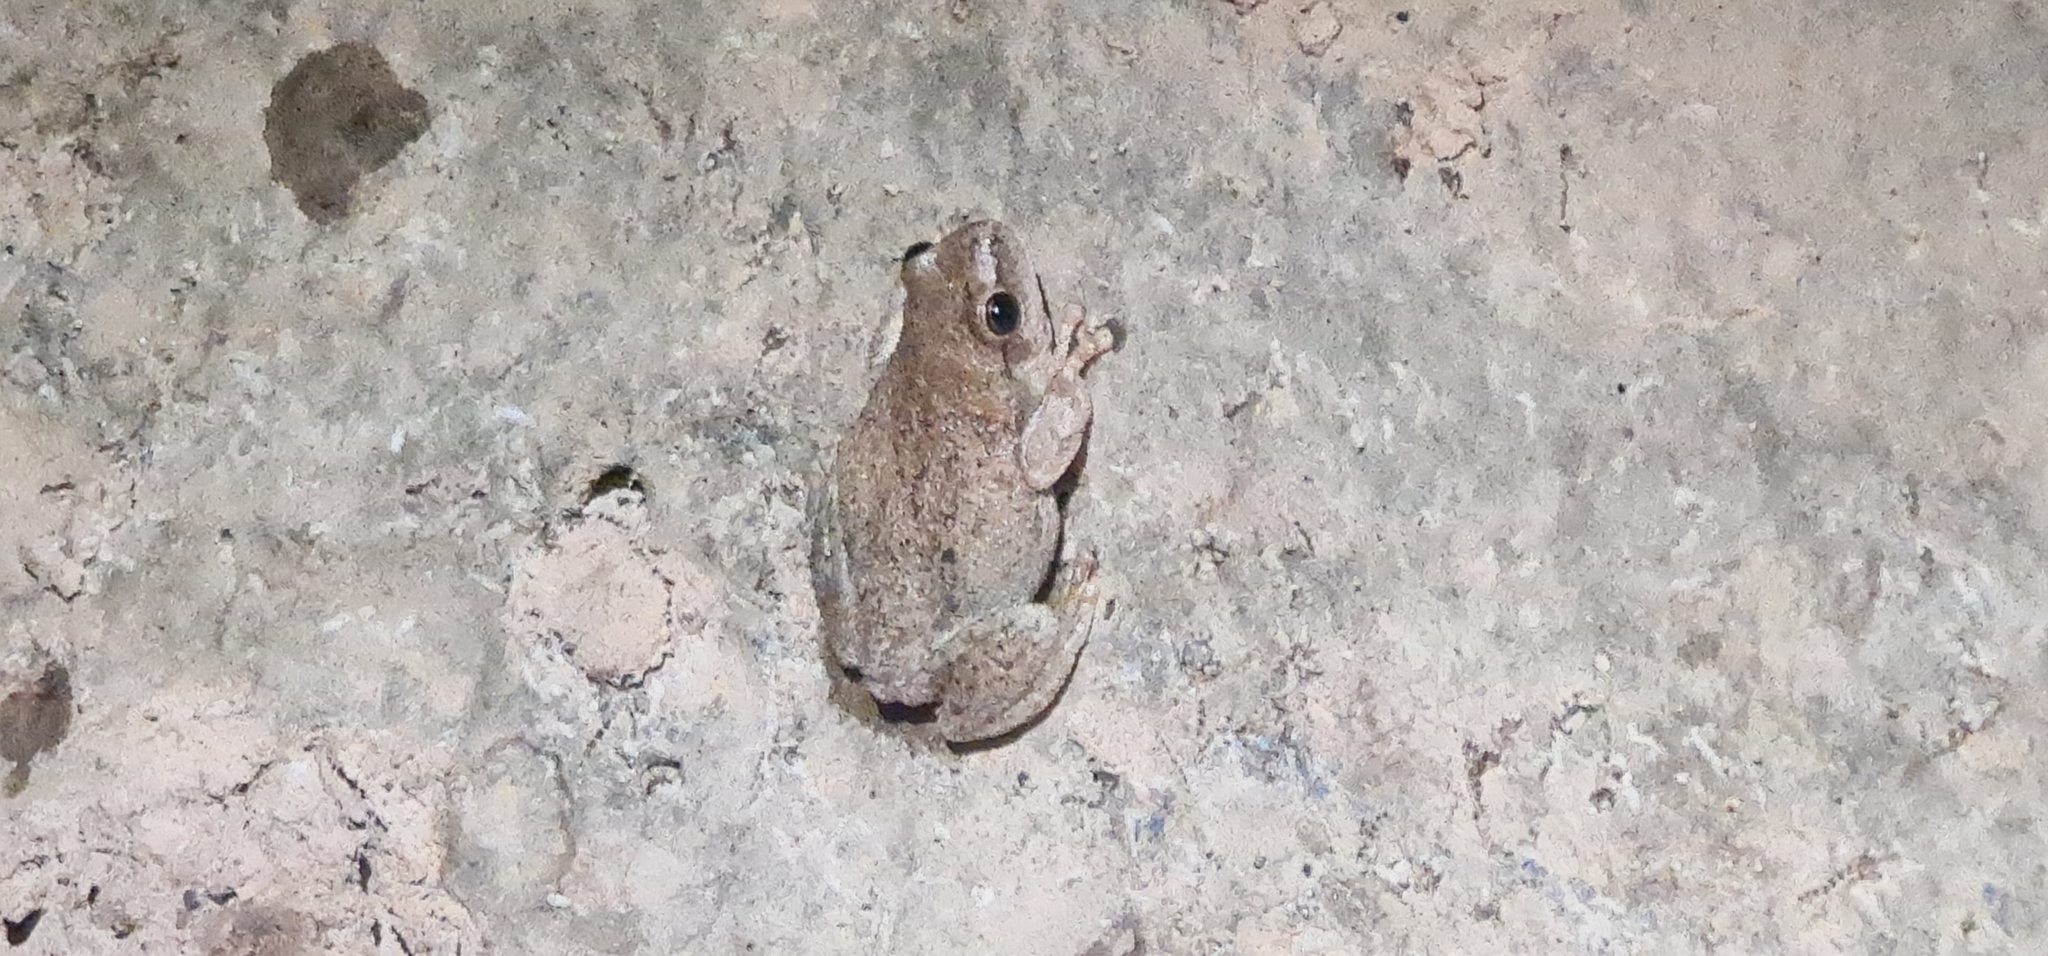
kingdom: Animalia
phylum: Chordata
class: Amphibia
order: Anura
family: Pelodryadidae
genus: Litoria
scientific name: Litoria rubella
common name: Desert tree frog
